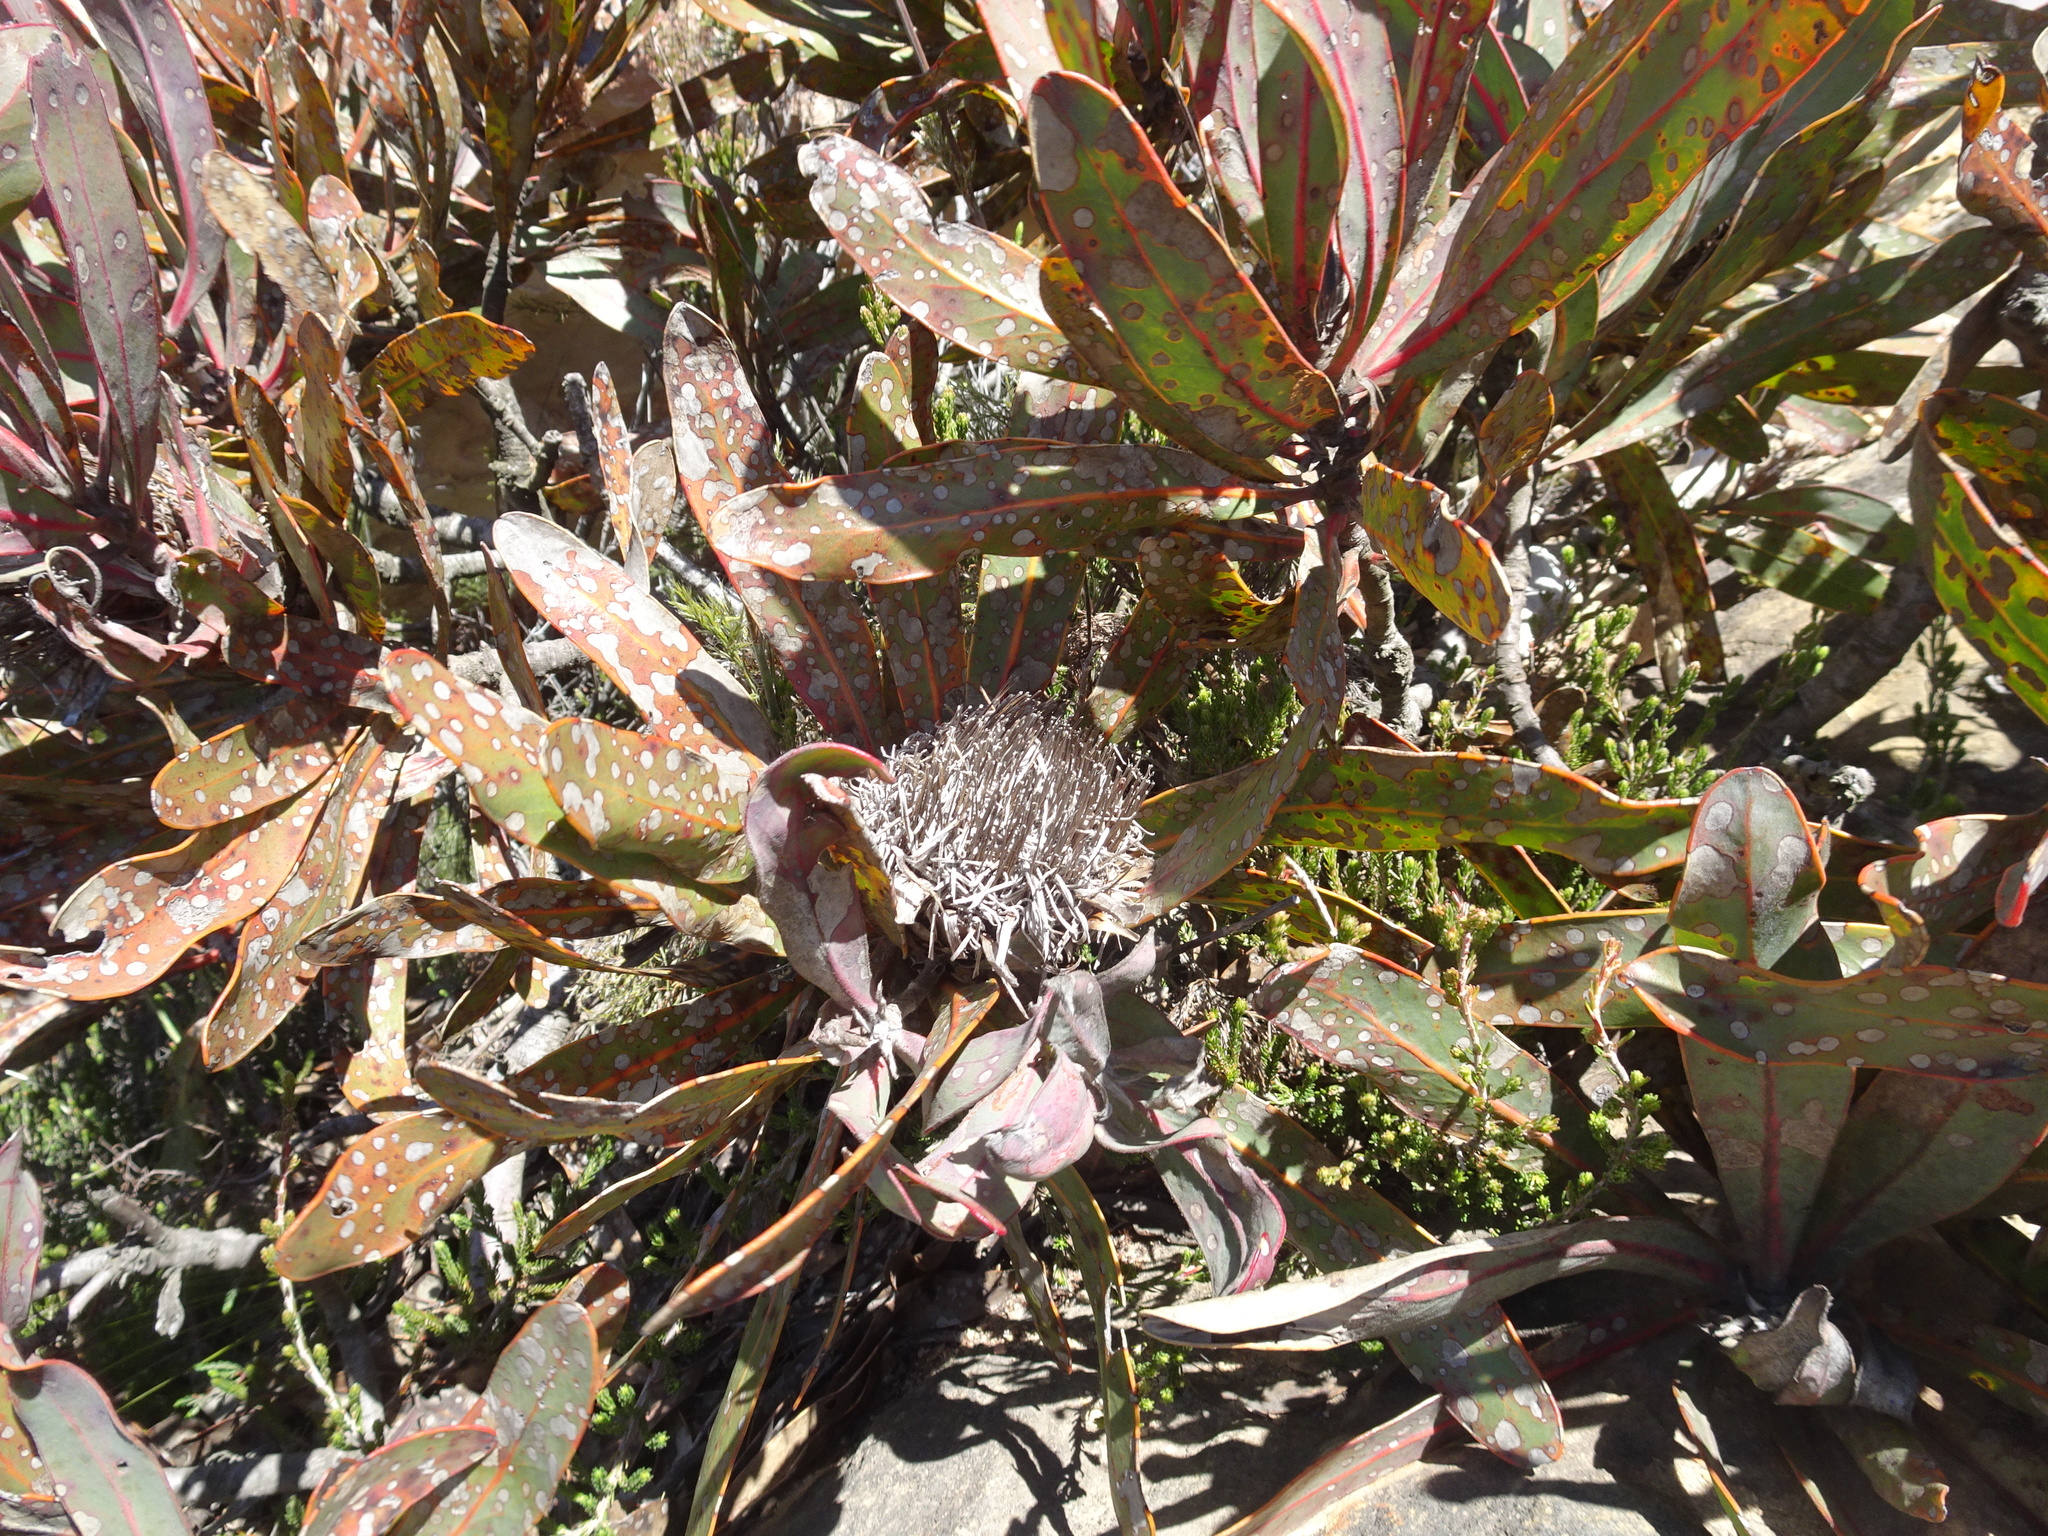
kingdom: Plantae
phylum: Tracheophyta
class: Magnoliopsida
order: Proteales
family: Proteaceae
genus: Protea
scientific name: Protea lorifolia
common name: Strap-leaved protea
